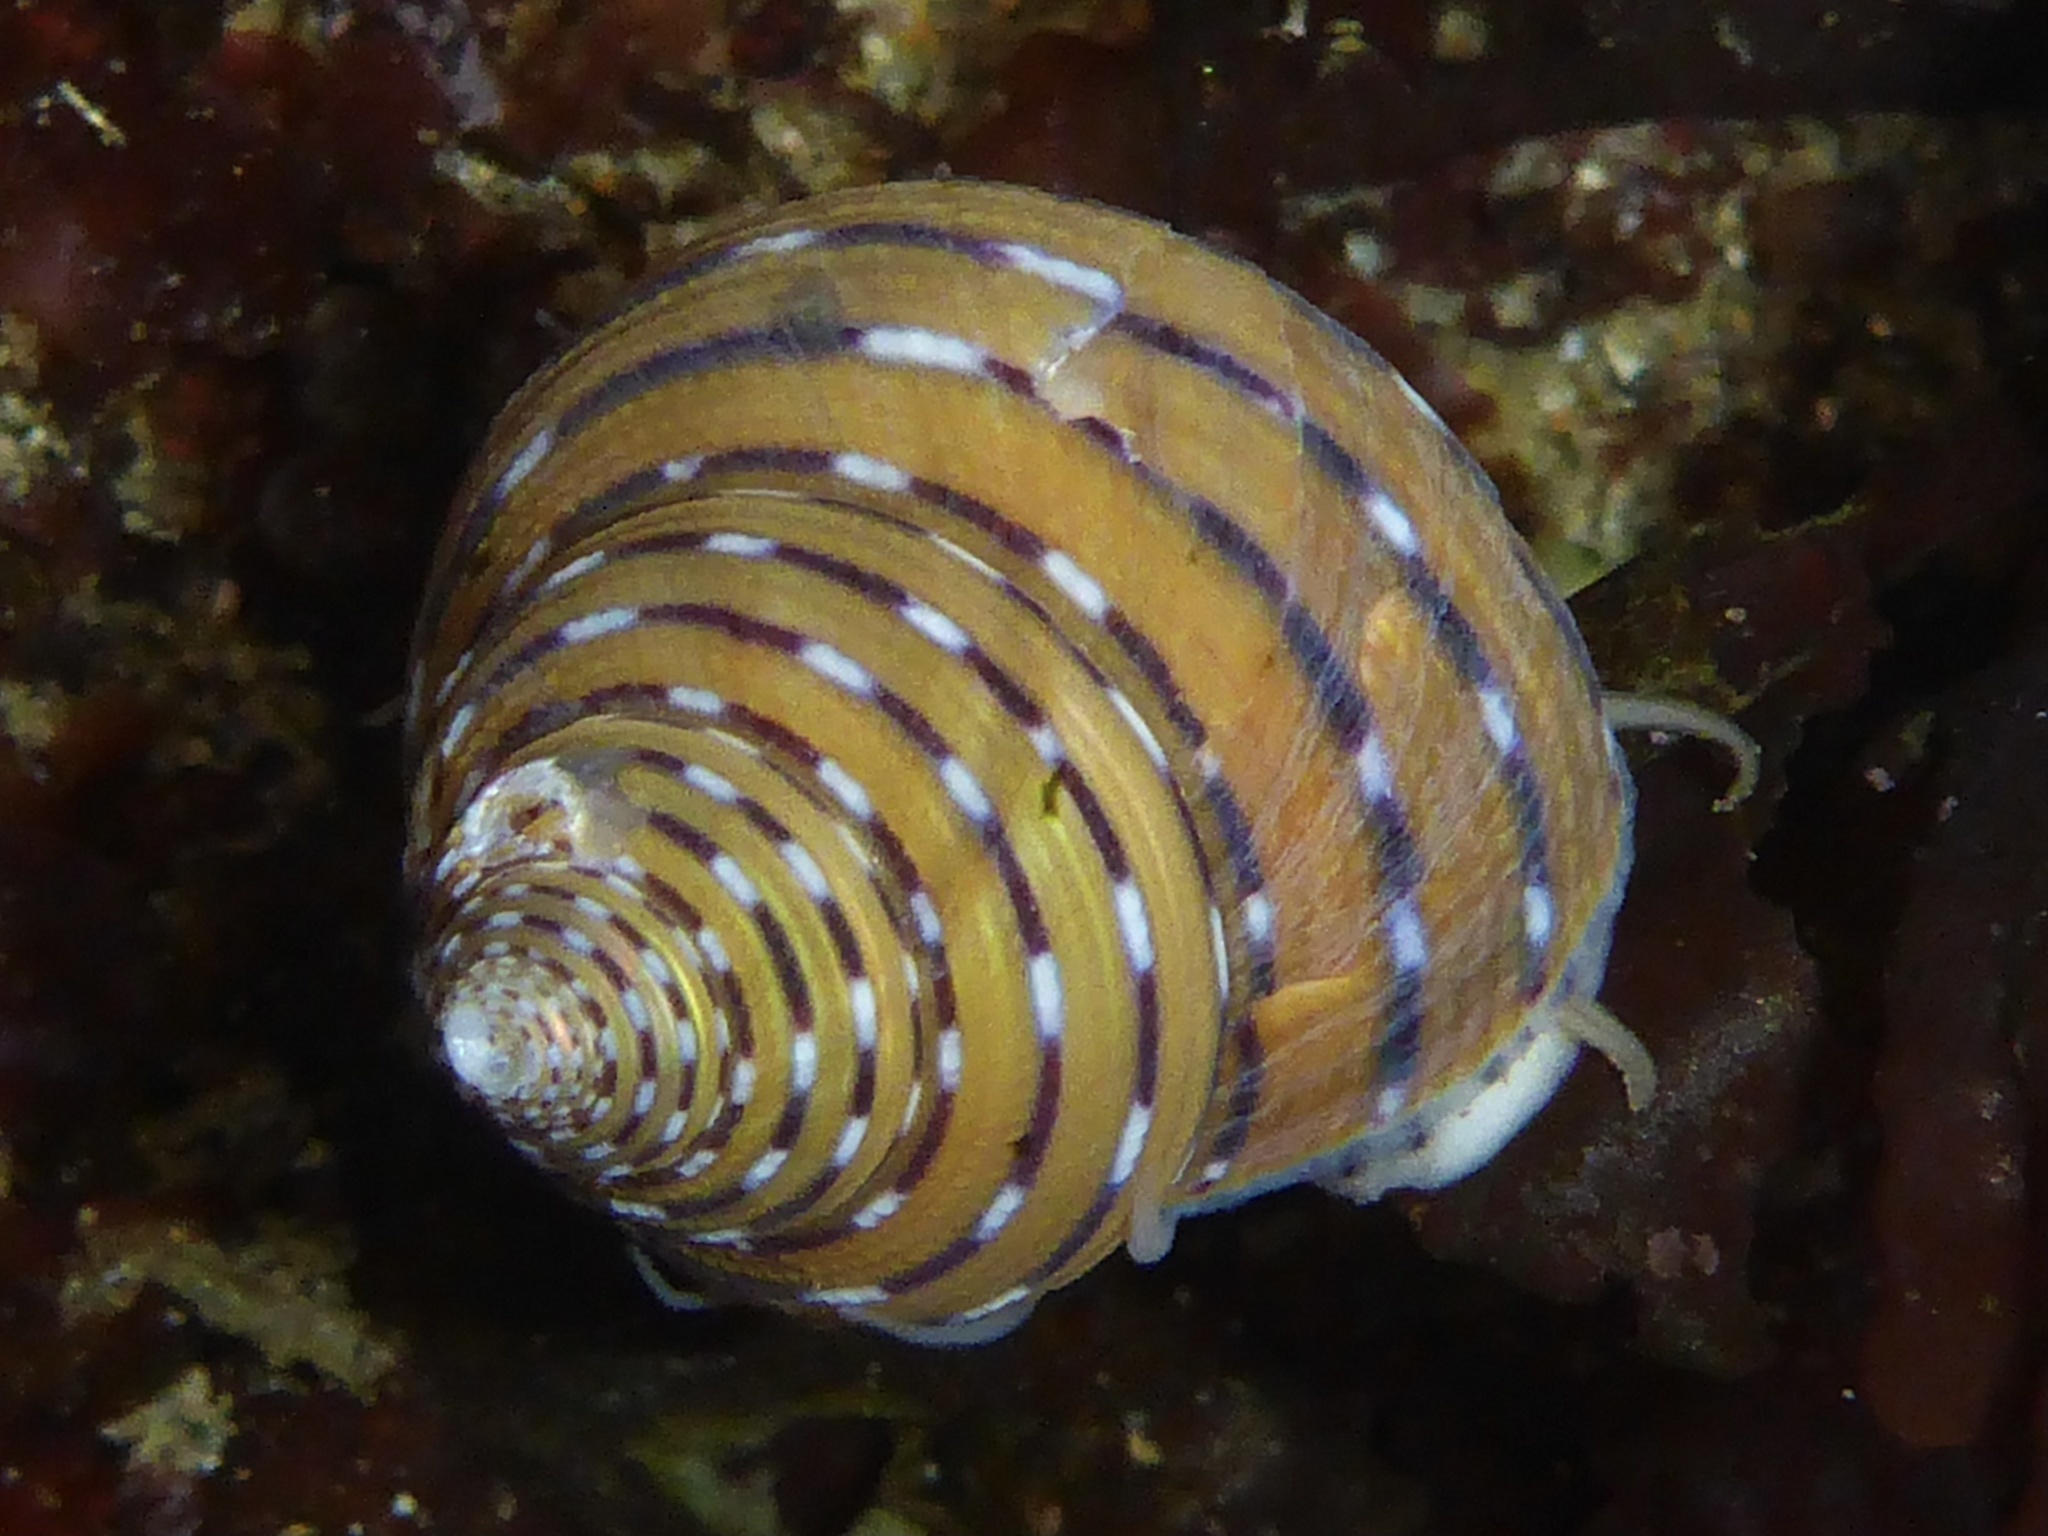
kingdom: Animalia
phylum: Mollusca
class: Gastropoda
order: Trochida
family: Calliostomatidae
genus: Calliostoma
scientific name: Calliostoma tricolor
